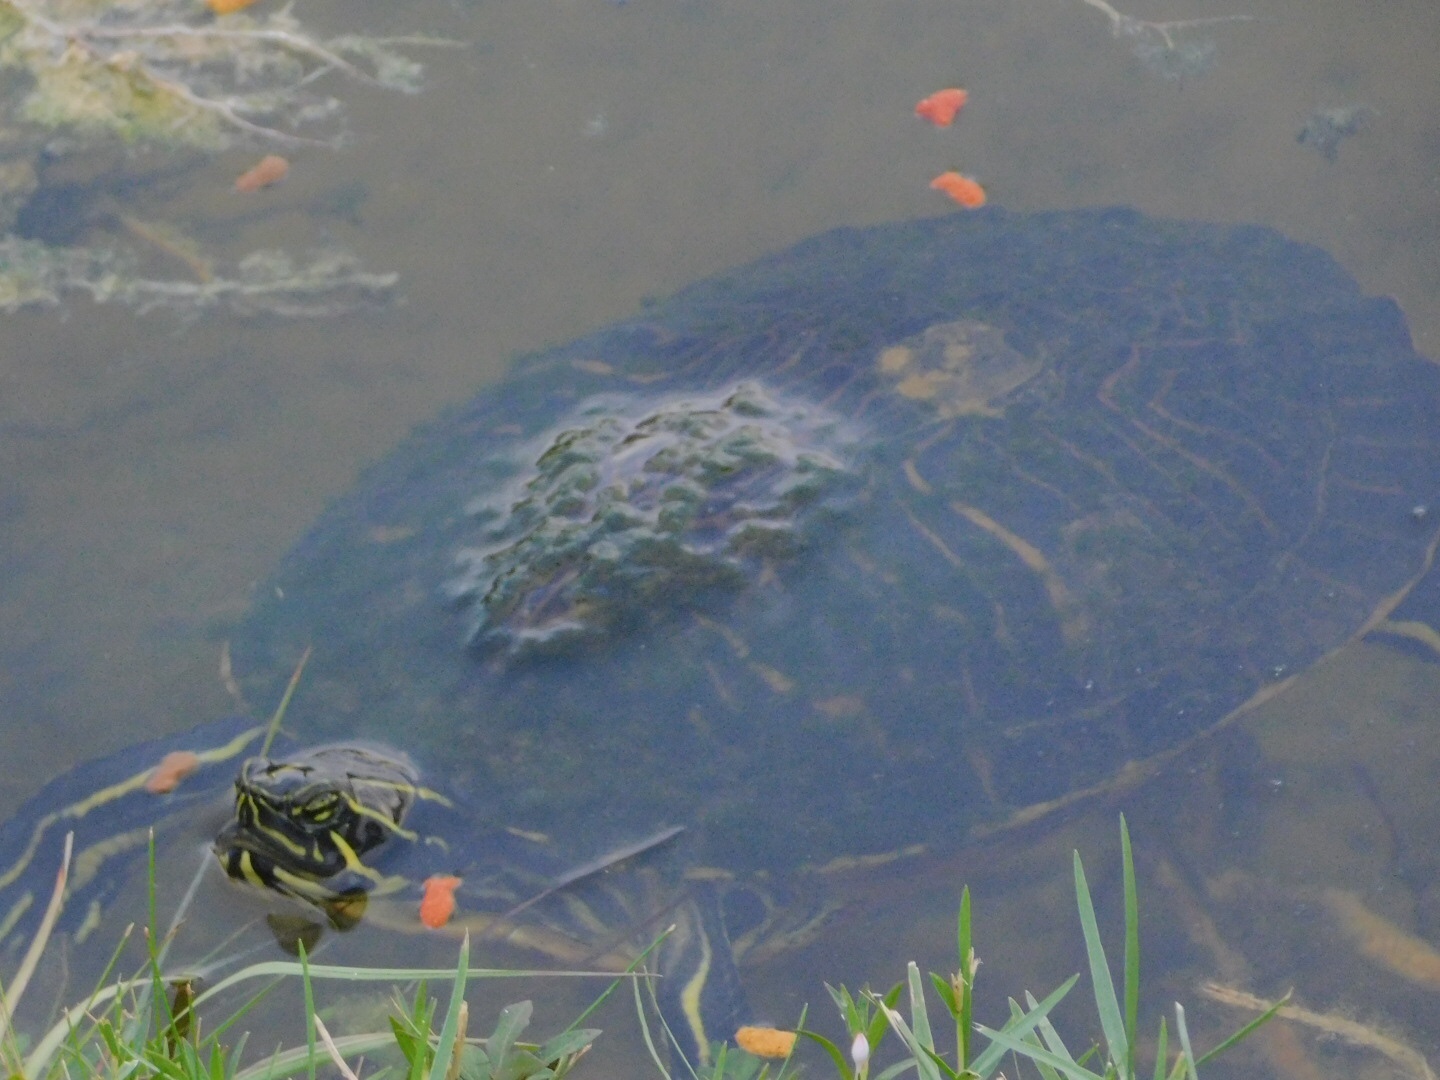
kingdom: Animalia
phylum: Chordata
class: Testudines
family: Emydidae
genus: Pseudemys
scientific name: Pseudemys peninsularis
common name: Peninsula cooter
